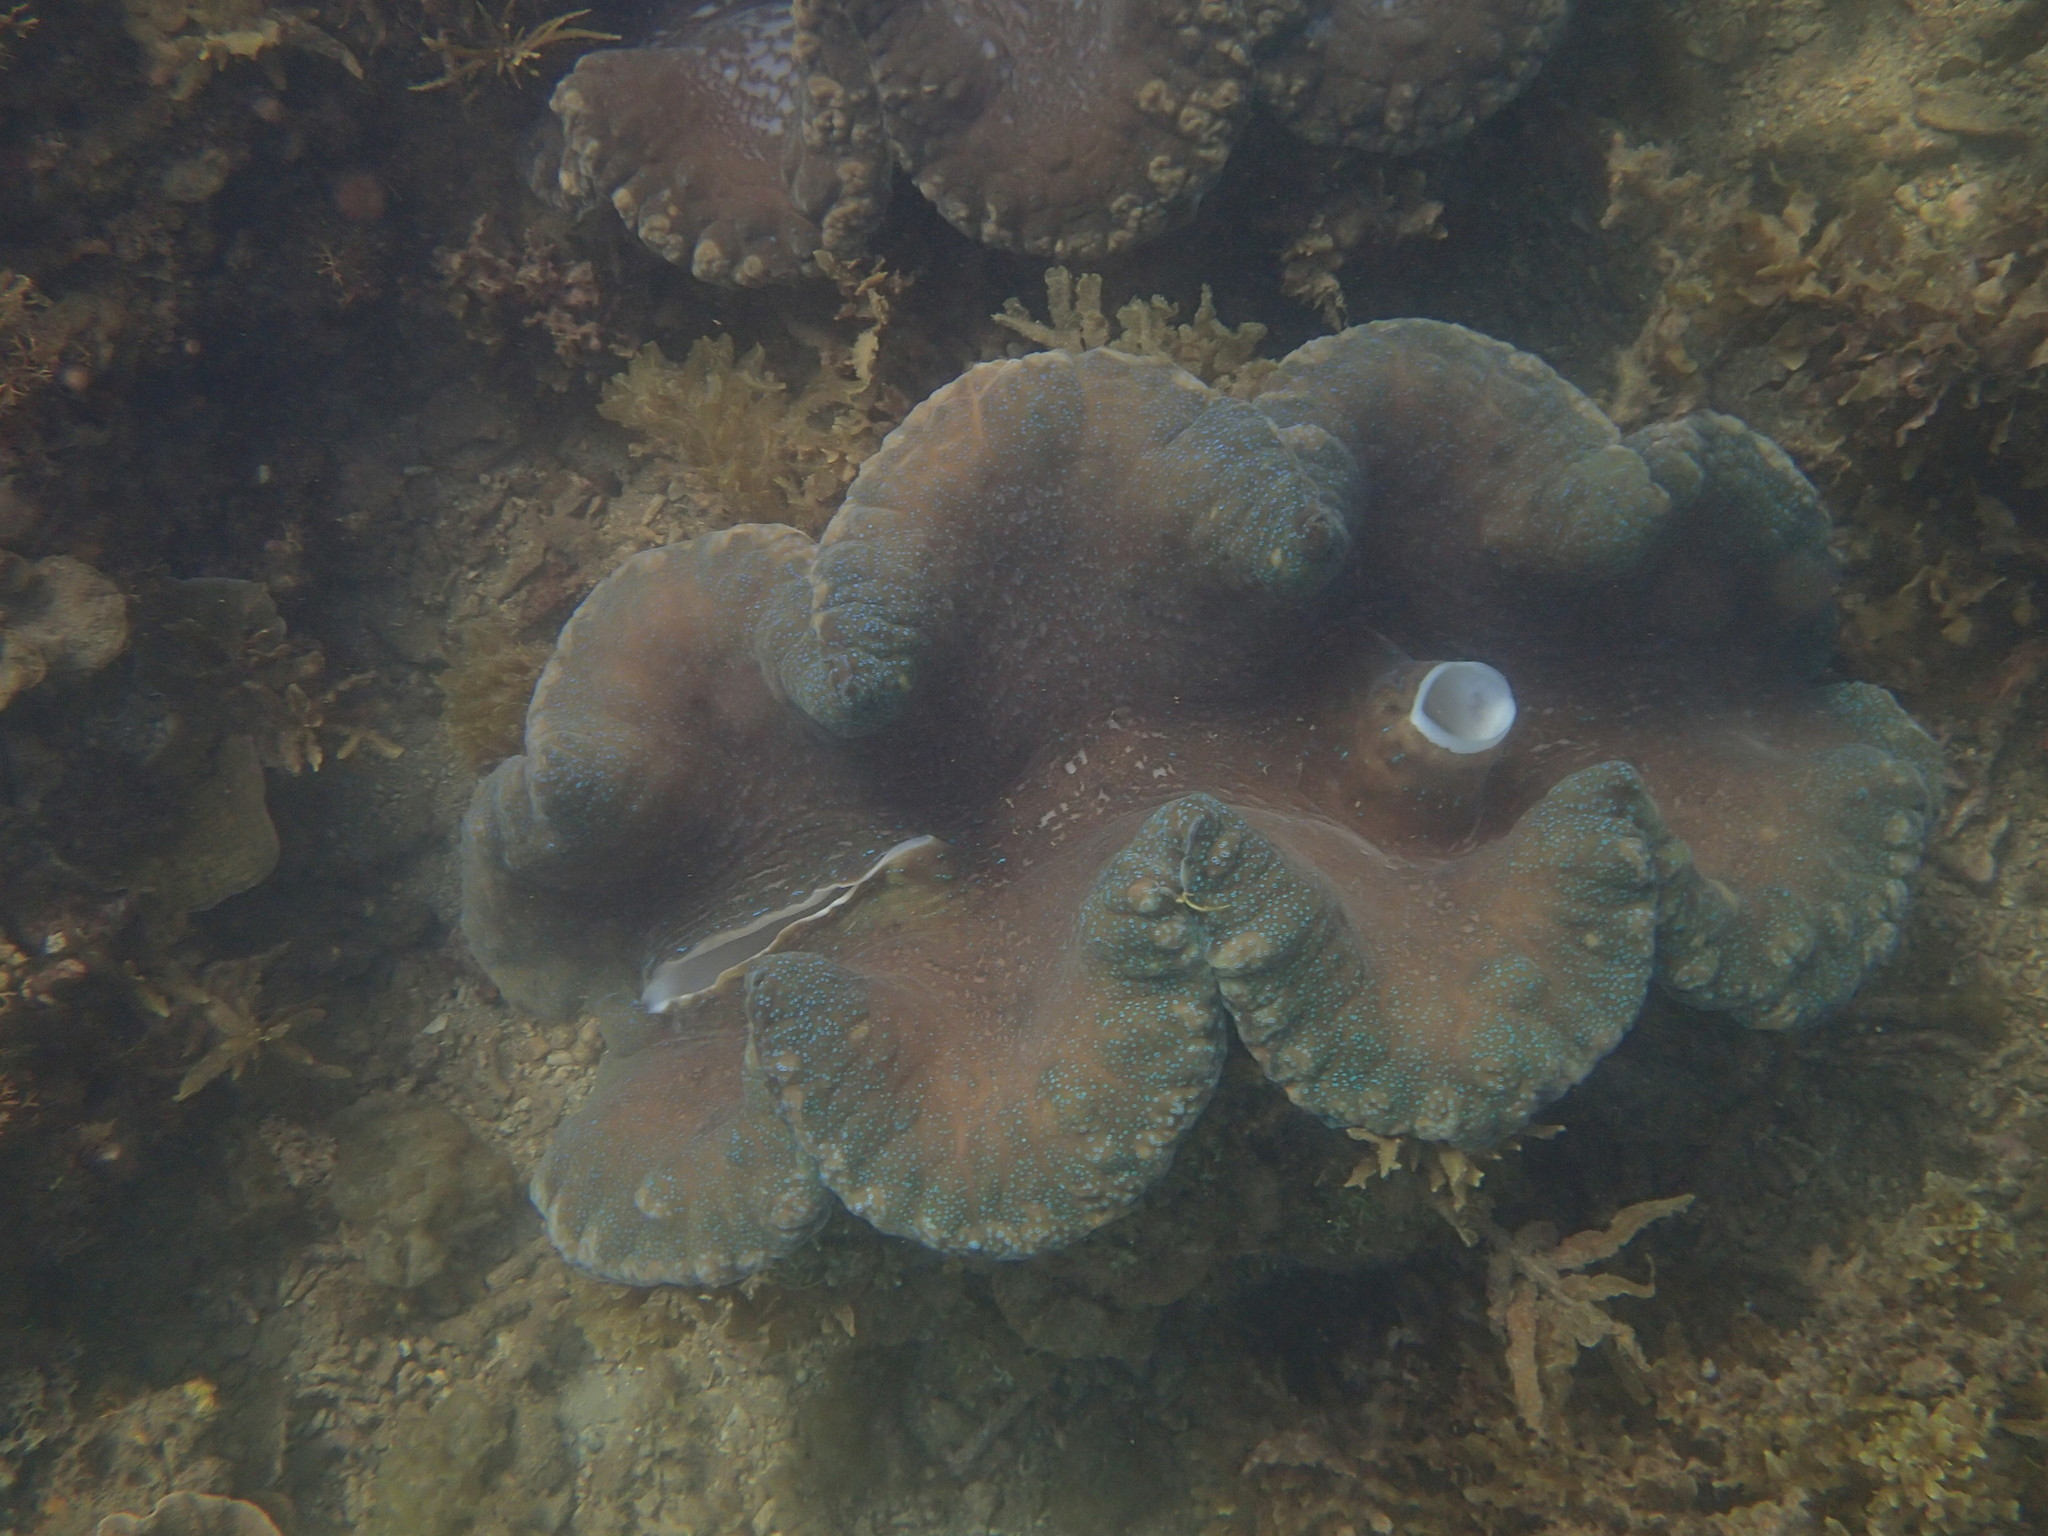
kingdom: Animalia
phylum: Mollusca
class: Bivalvia
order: Cardiida
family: Cardiidae
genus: Tridacna
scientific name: Tridacna gigas
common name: Giant clam
